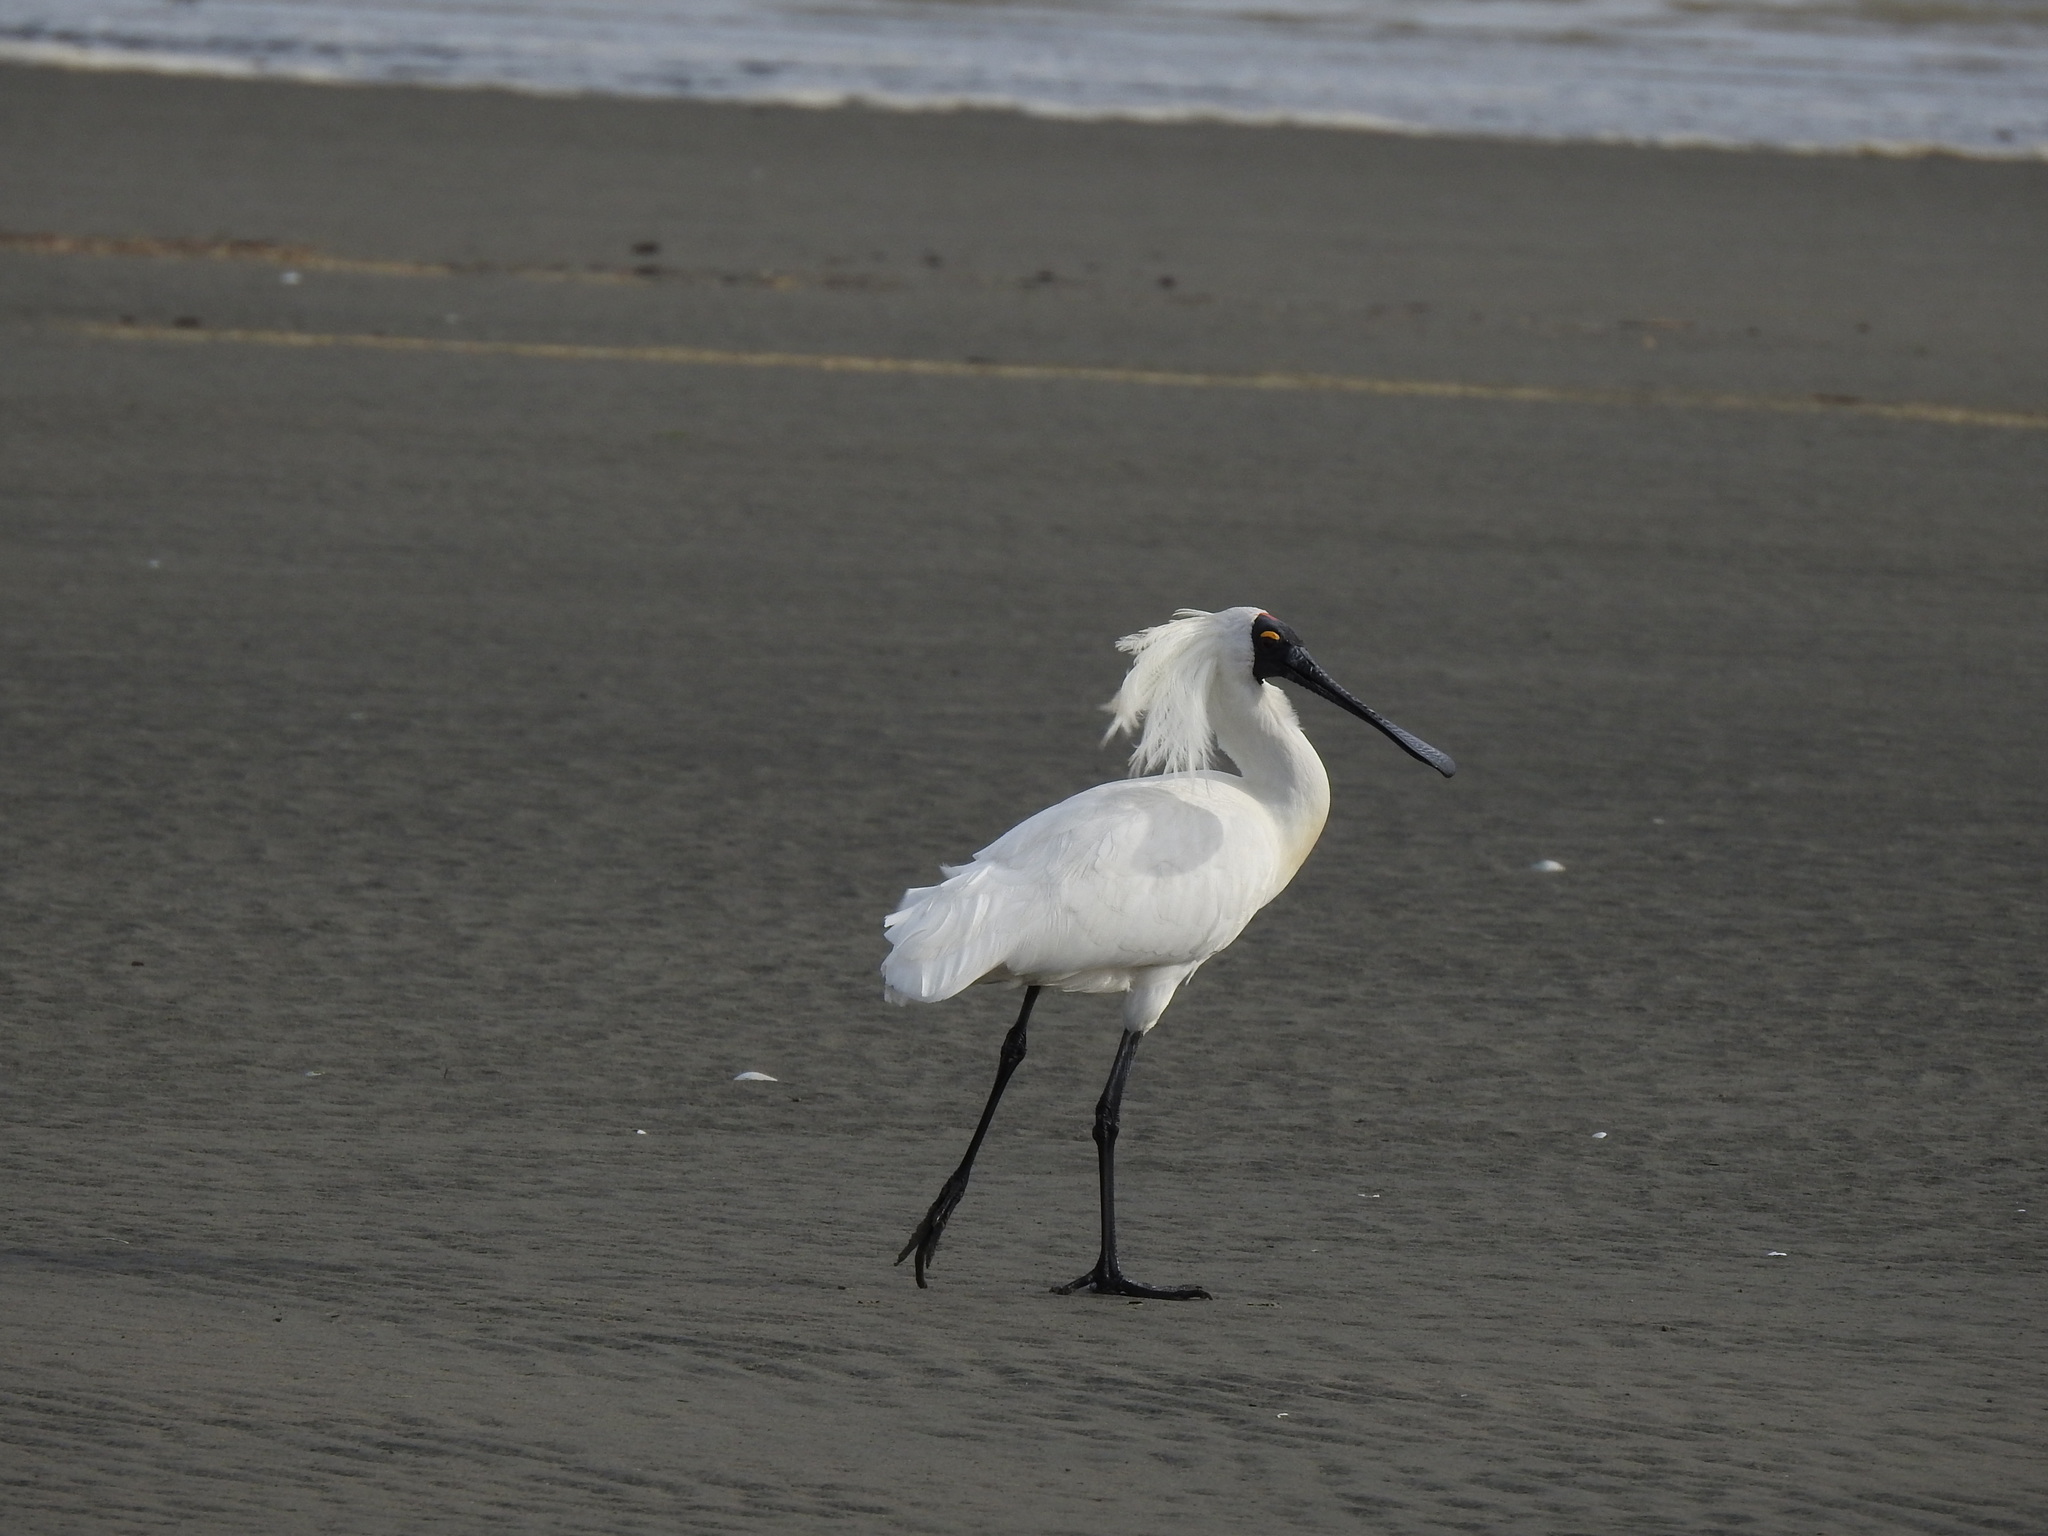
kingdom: Animalia
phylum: Chordata
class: Aves
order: Pelecaniformes
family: Threskiornithidae
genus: Platalea
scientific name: Platalea regia
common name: Royal spoonbill
